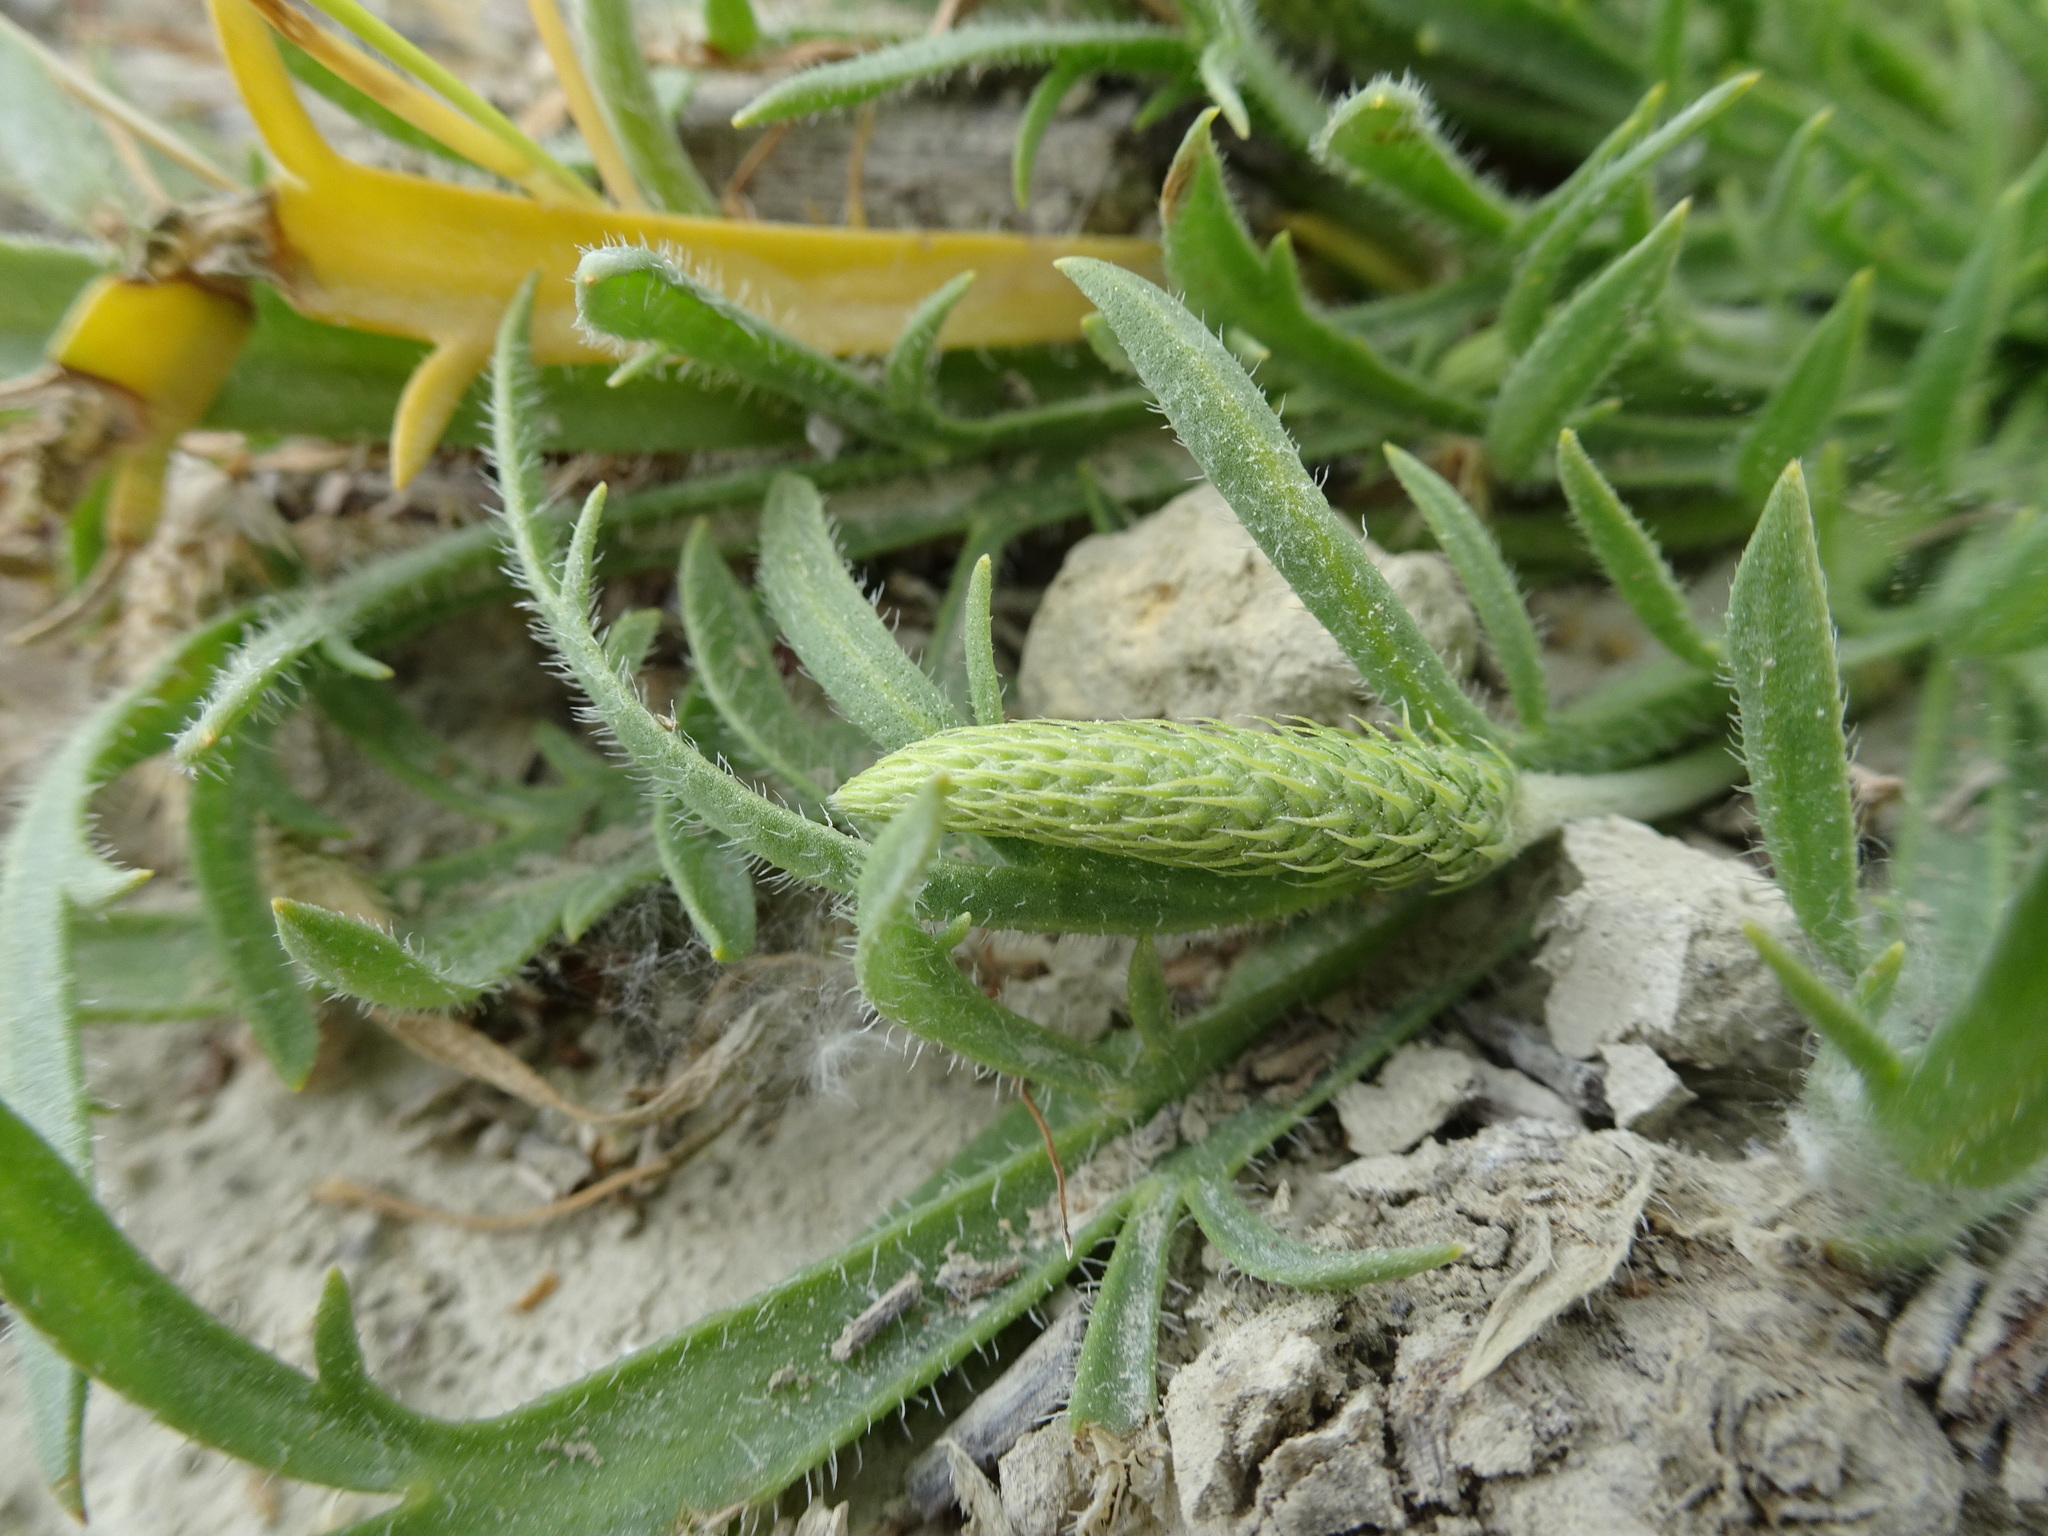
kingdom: Plantae
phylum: Tracheophyta
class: Magnoliopsida
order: Lamiales
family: Plantaginaceae
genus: Plantago
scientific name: Plantago coronopus
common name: Buck's-horn plantain
